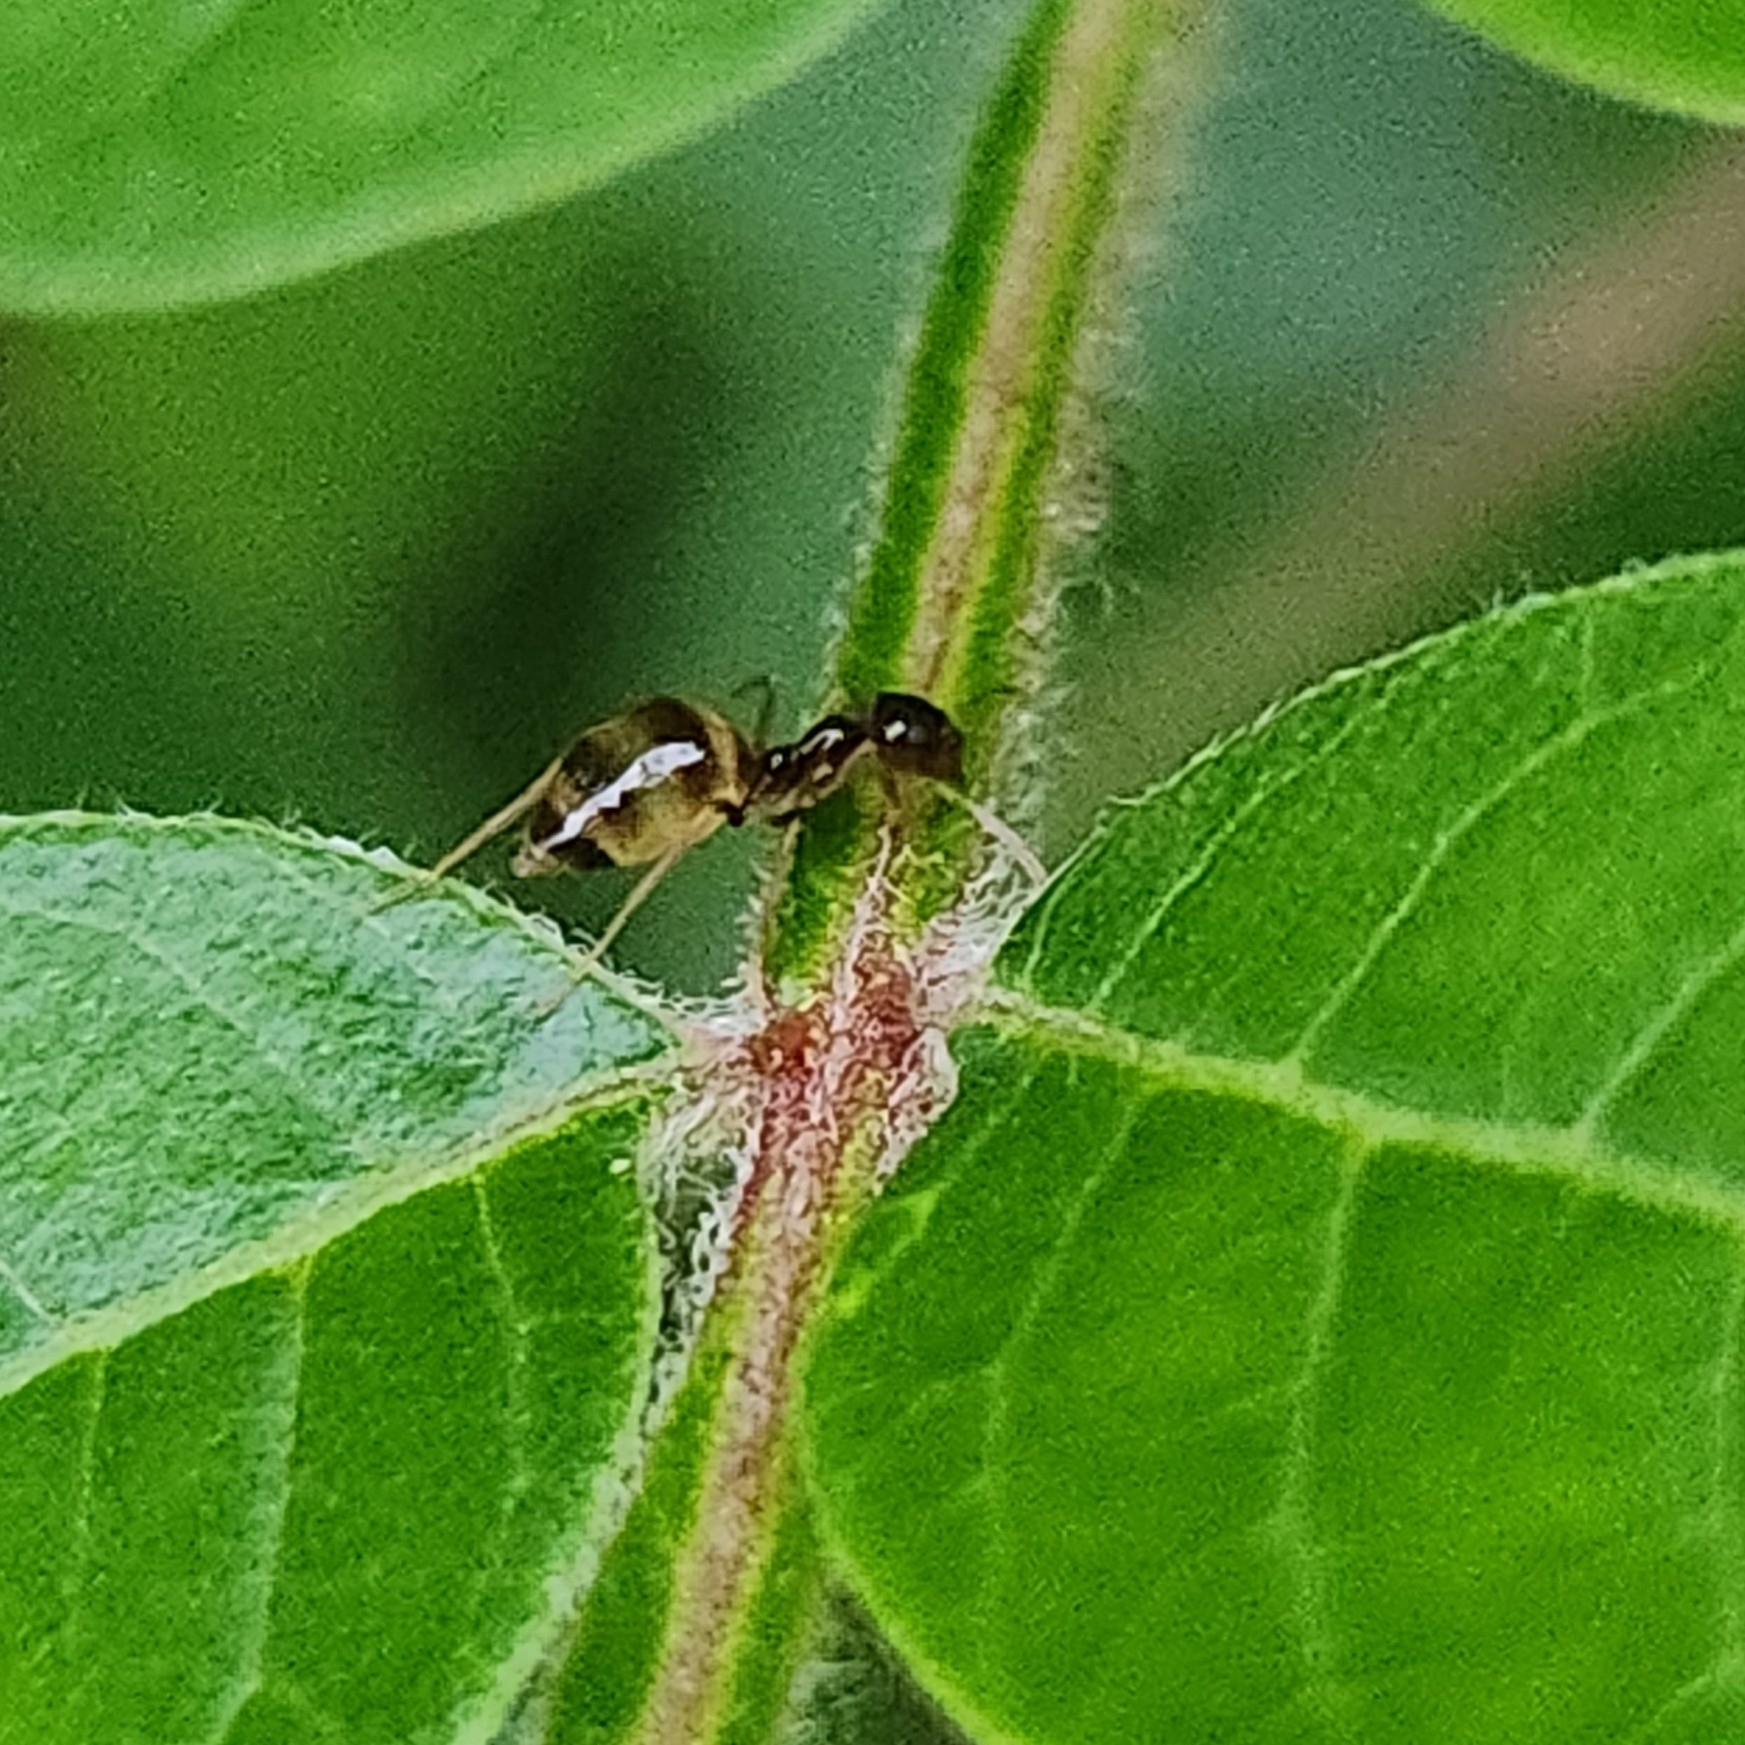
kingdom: Animalia
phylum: Arthropoda
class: Insecta
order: Hymenoptera
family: Formicidae
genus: Prenolepis
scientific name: Prenolepis imparis
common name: Small honey ant
